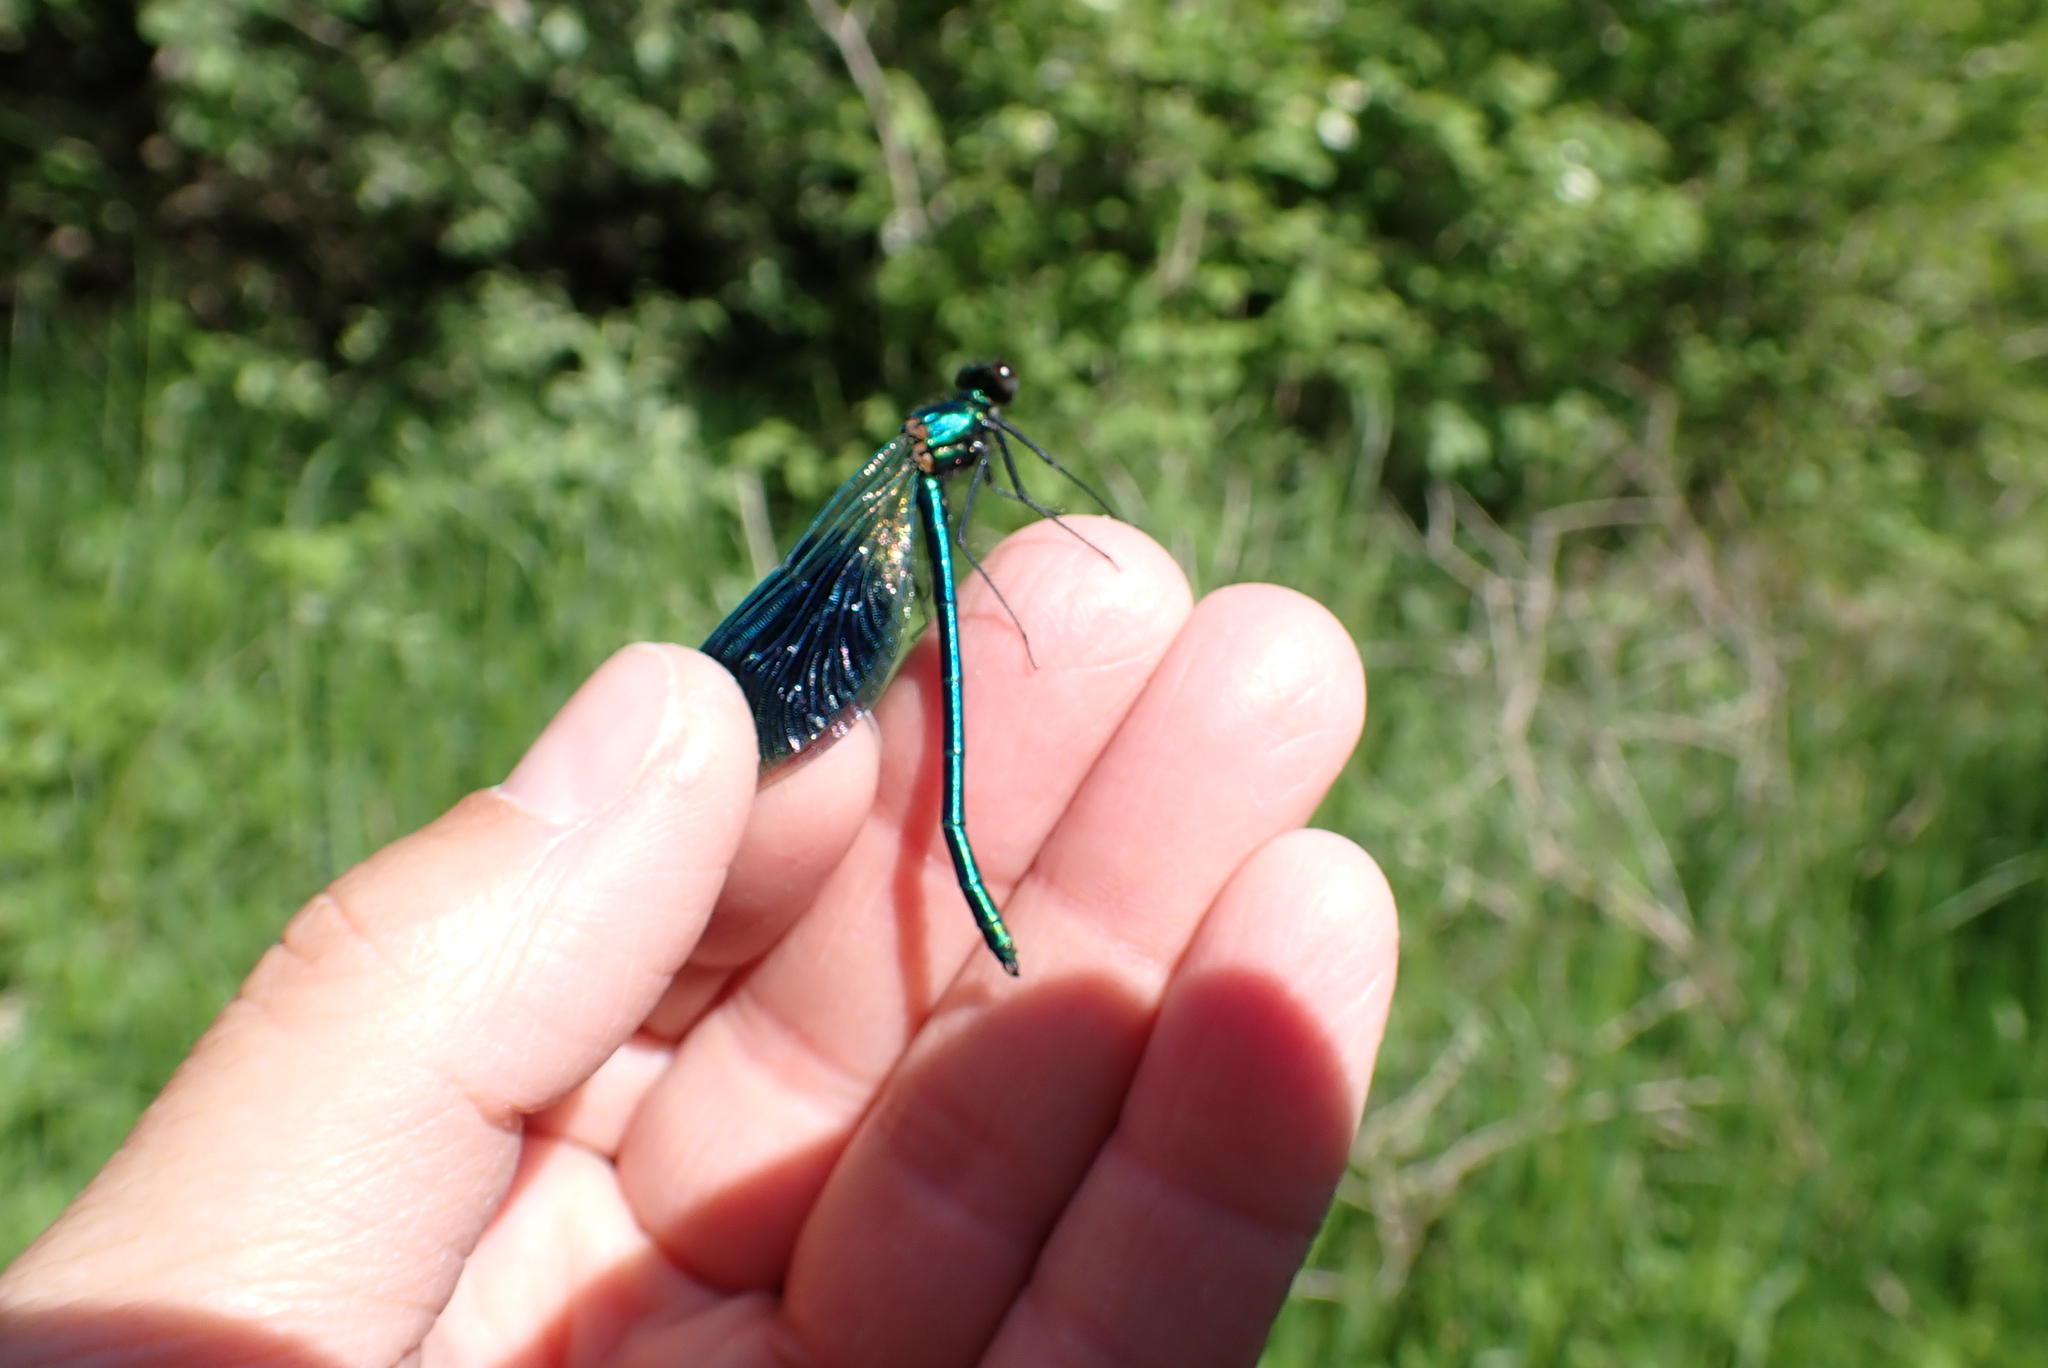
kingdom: Animalia
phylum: Arthropoda
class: Insecta
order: Odonata
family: Calopterygidae
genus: Calopteryx
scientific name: Calopteryx splendens
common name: Banded demoiselle
